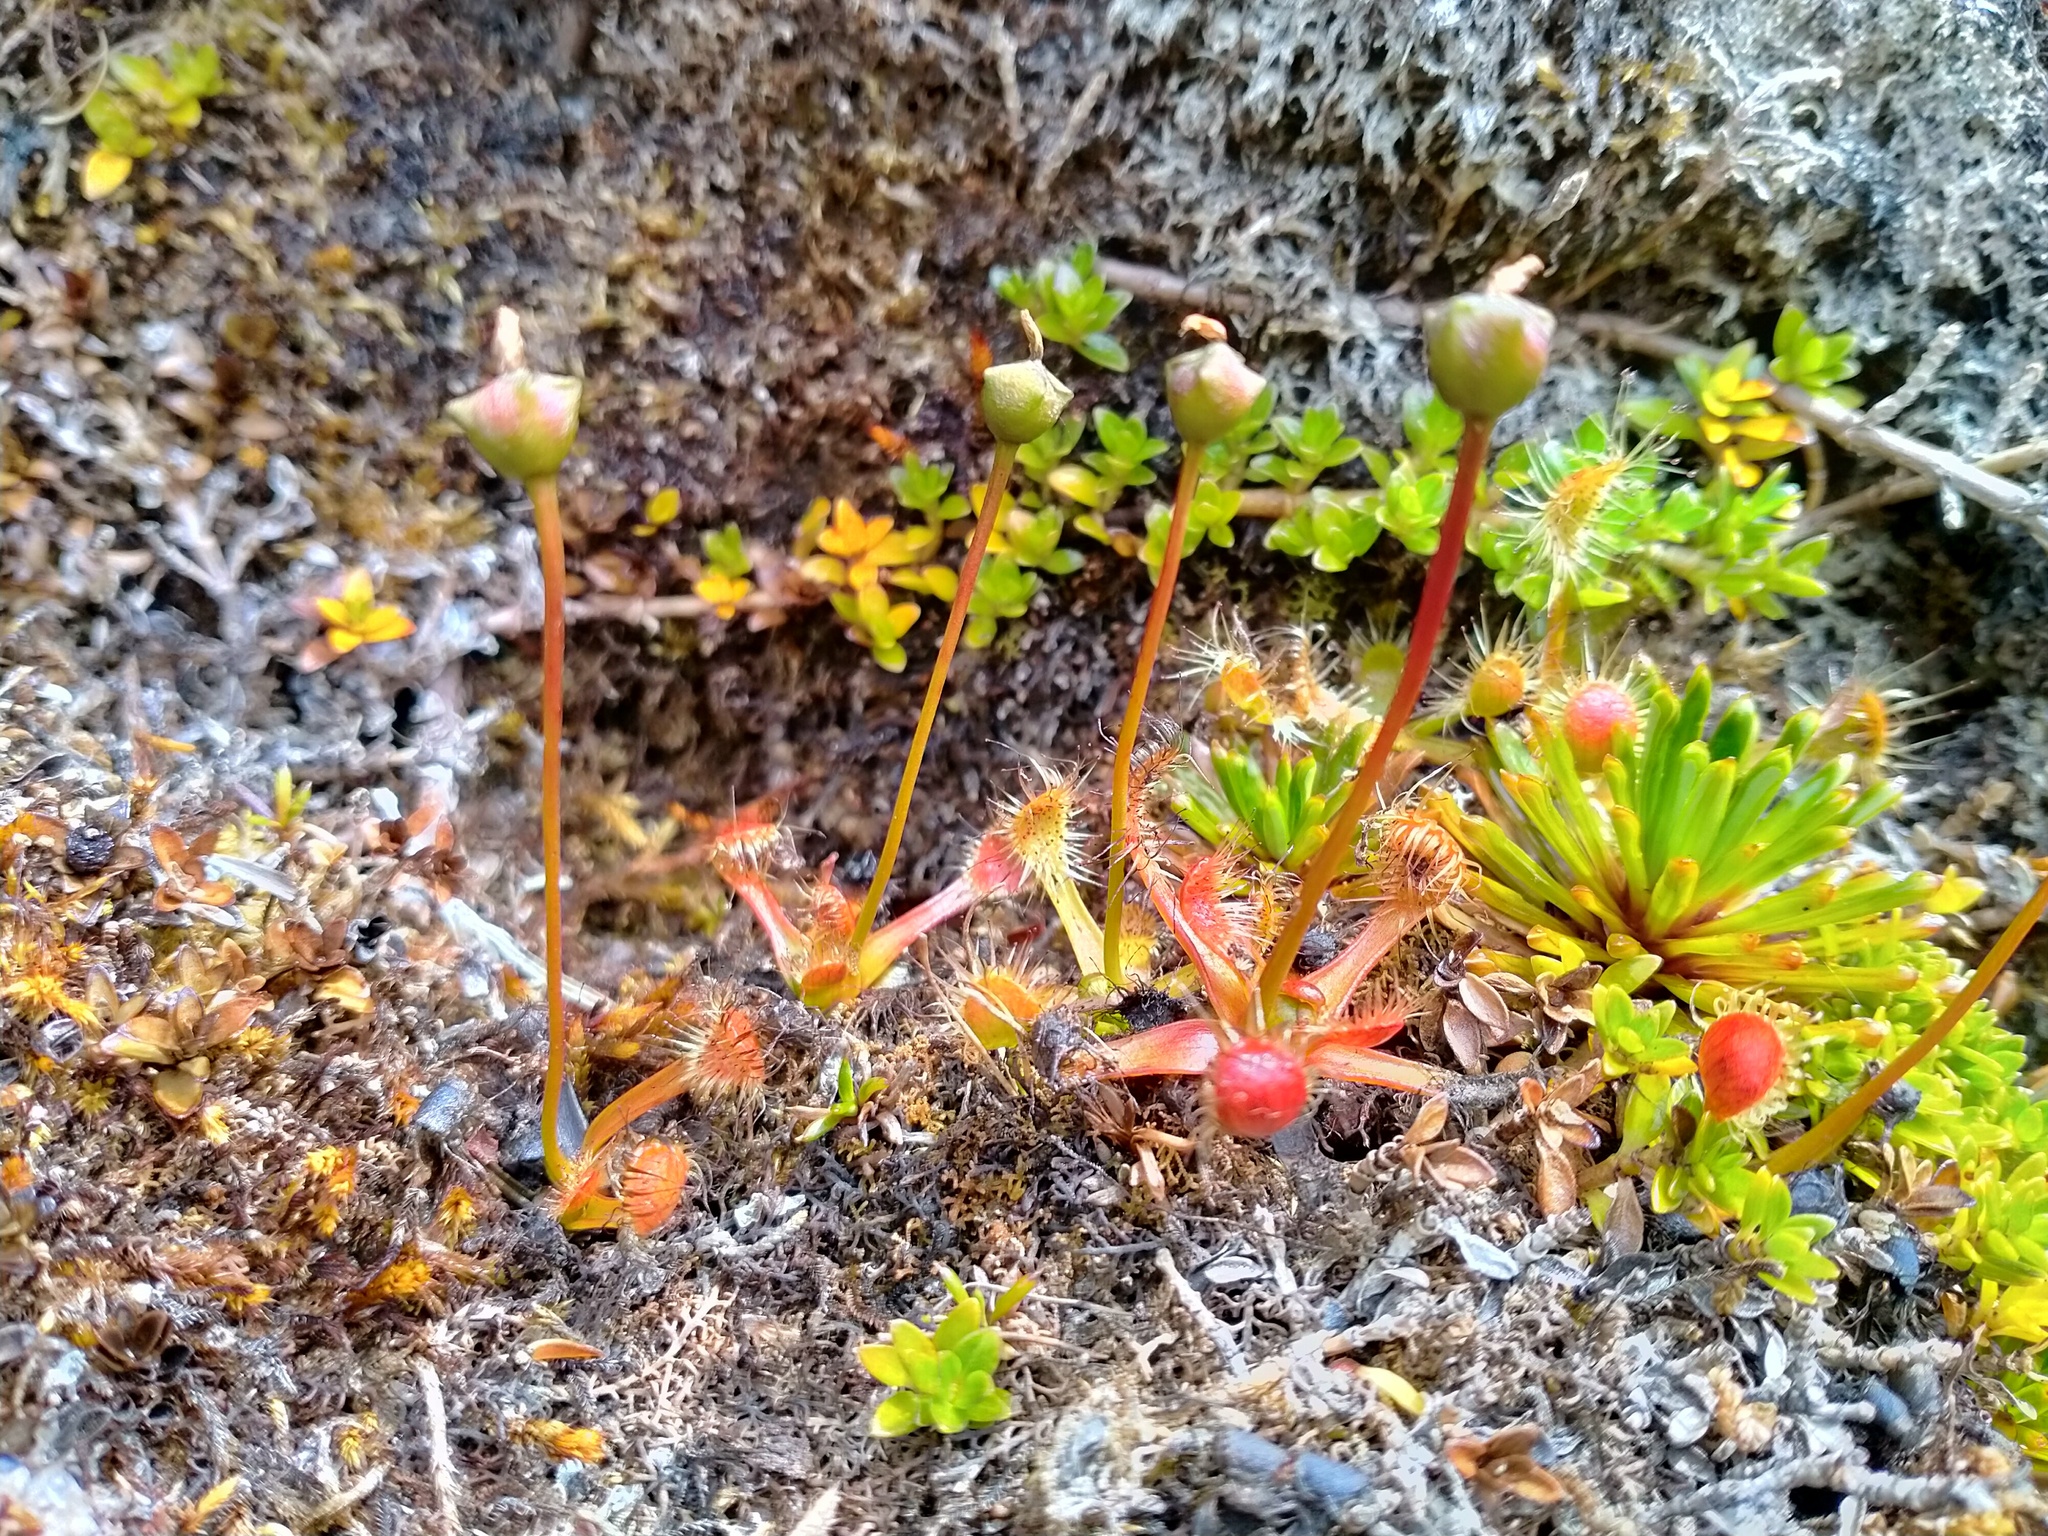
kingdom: Plantae
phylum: Tracheophyta
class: Magnoliopsida
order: Caryophyllales
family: Droseraceae
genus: Drosera
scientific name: Drosera stenopetala
